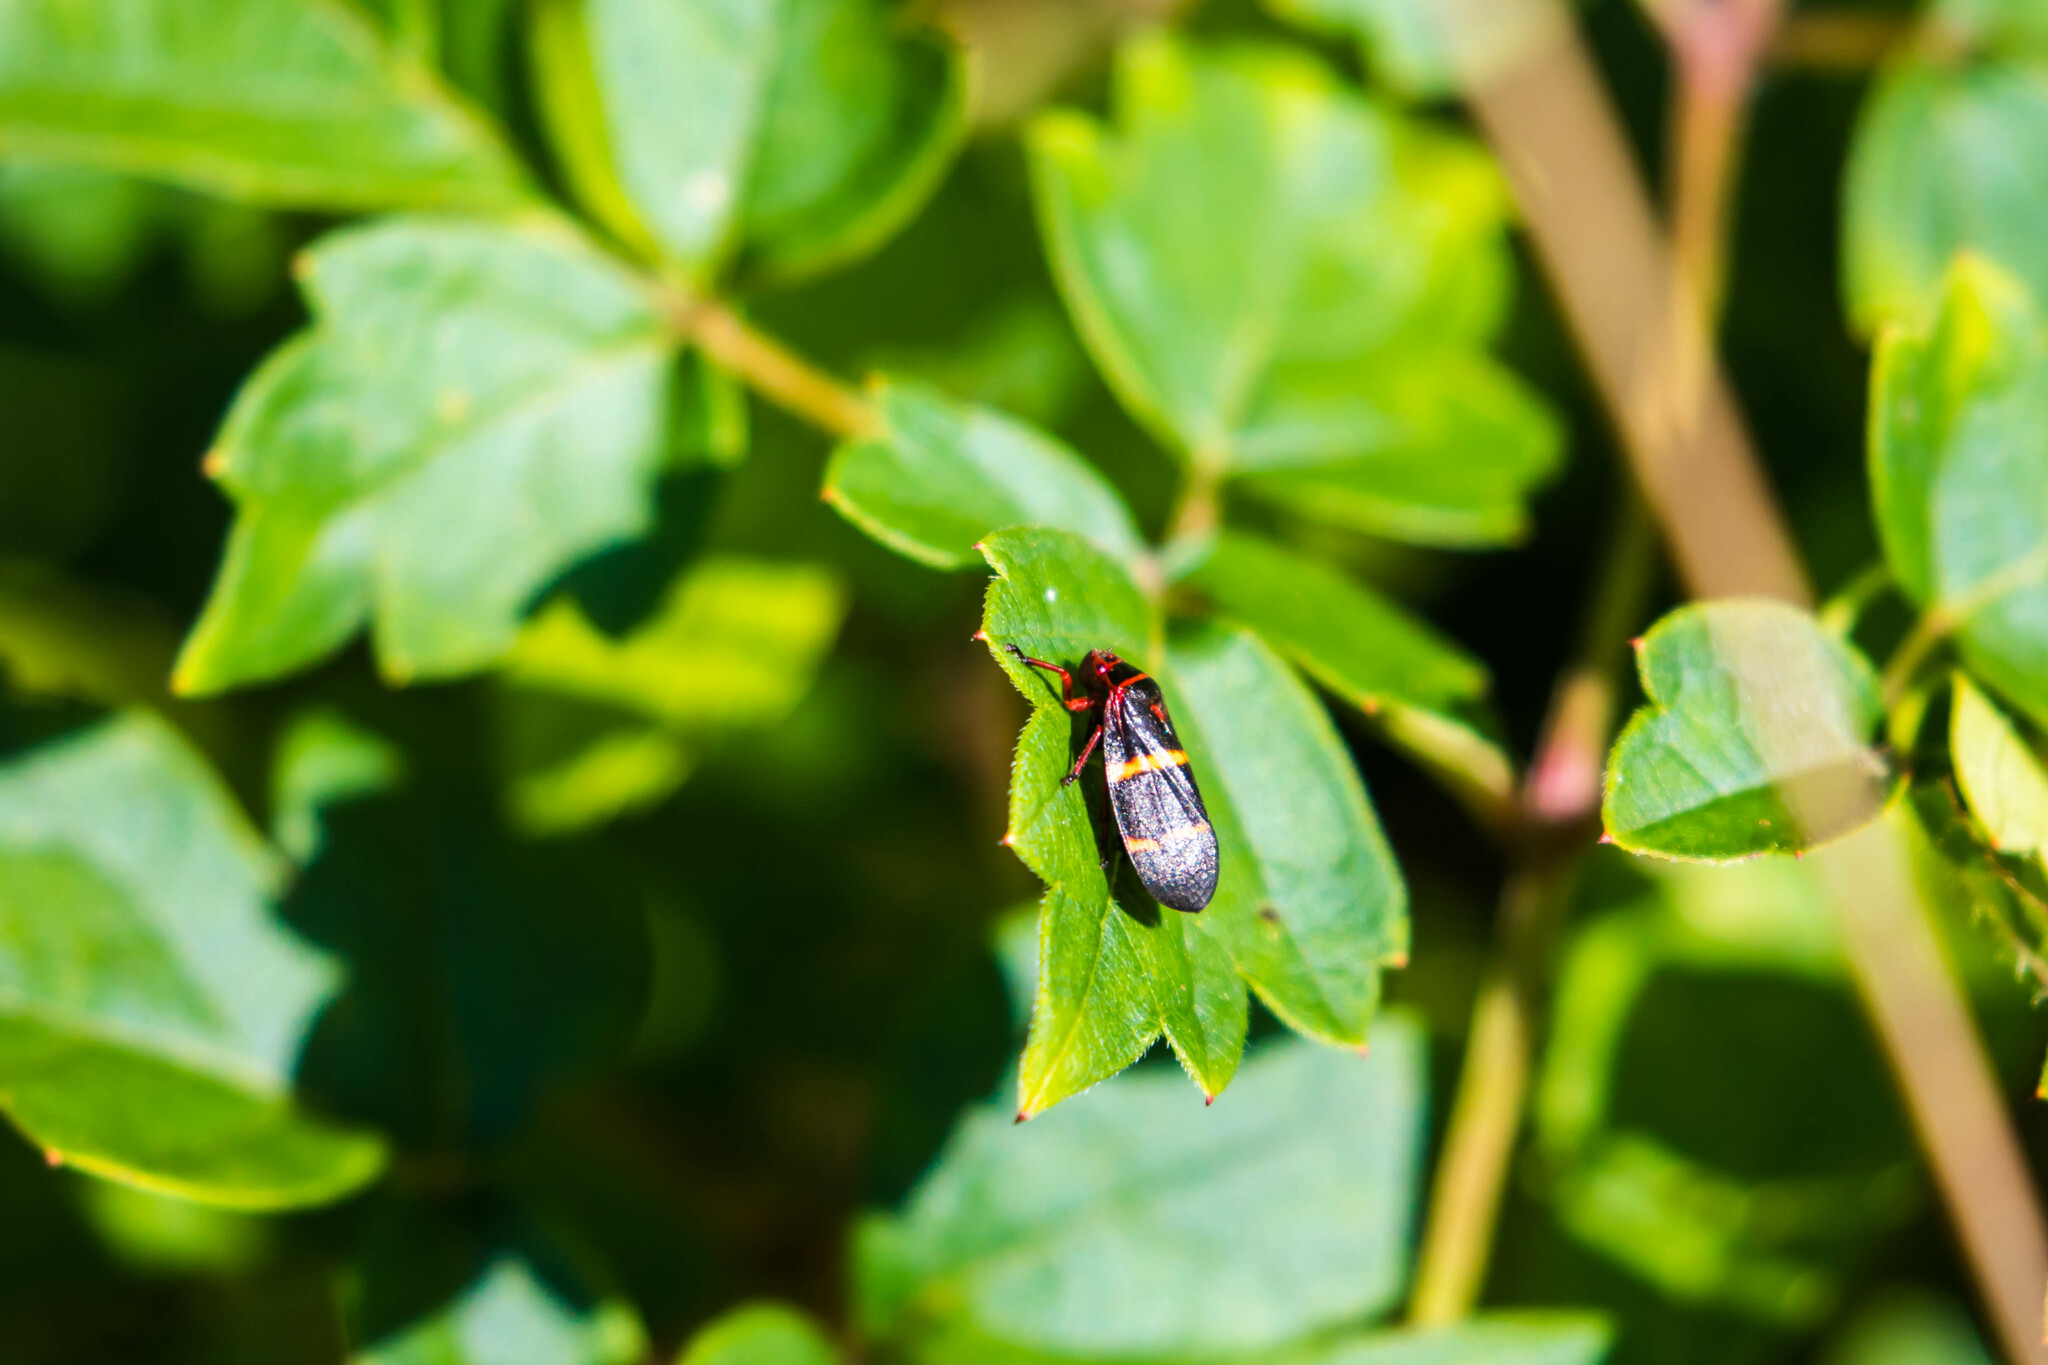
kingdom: Animalia
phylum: Arthropoda
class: Insecta
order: Hemiptera
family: Cercopidae
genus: Prosapia
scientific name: Prosapia bicincta
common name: Twolined spittlebug
